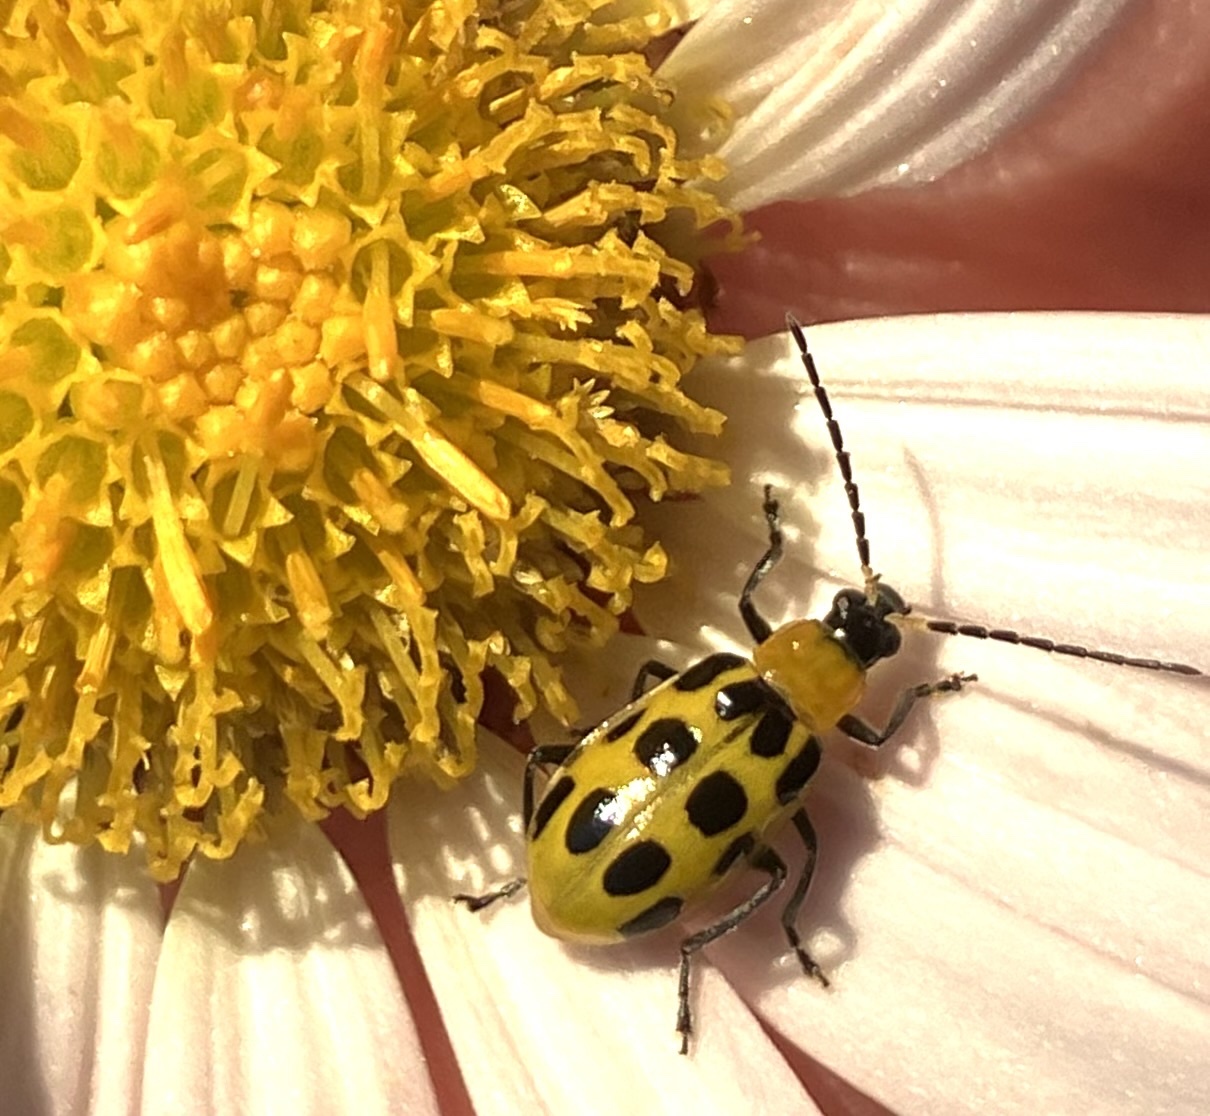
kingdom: Animalia
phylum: Arthropoda
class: Insecta
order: Coleoptera
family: Chrysomelidae
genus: Diabrotica
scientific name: Diabrotica undecimpunctata
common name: Spotted cucumber beetle
